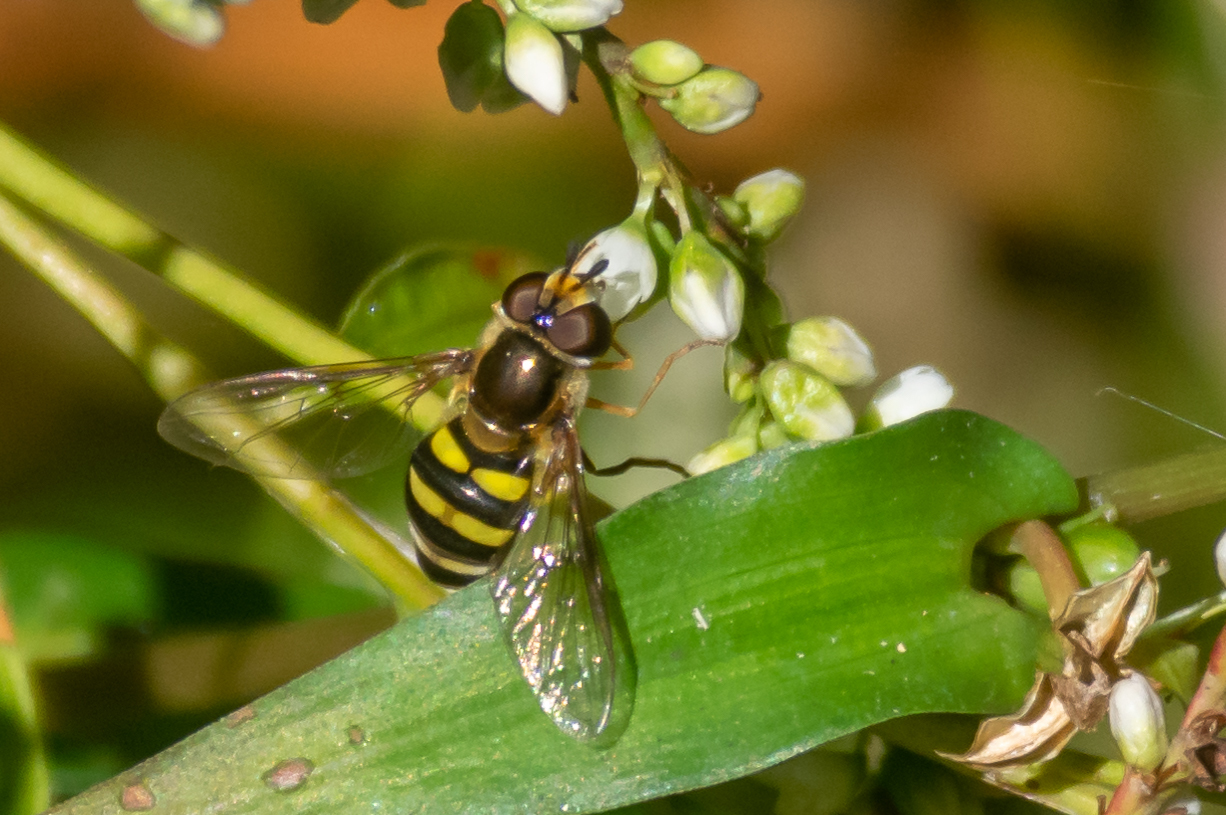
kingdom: Animalia
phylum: Arthropoda
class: Insecta
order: Diptera
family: Syrphidae
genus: Eupeodes
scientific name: Eupeodes
